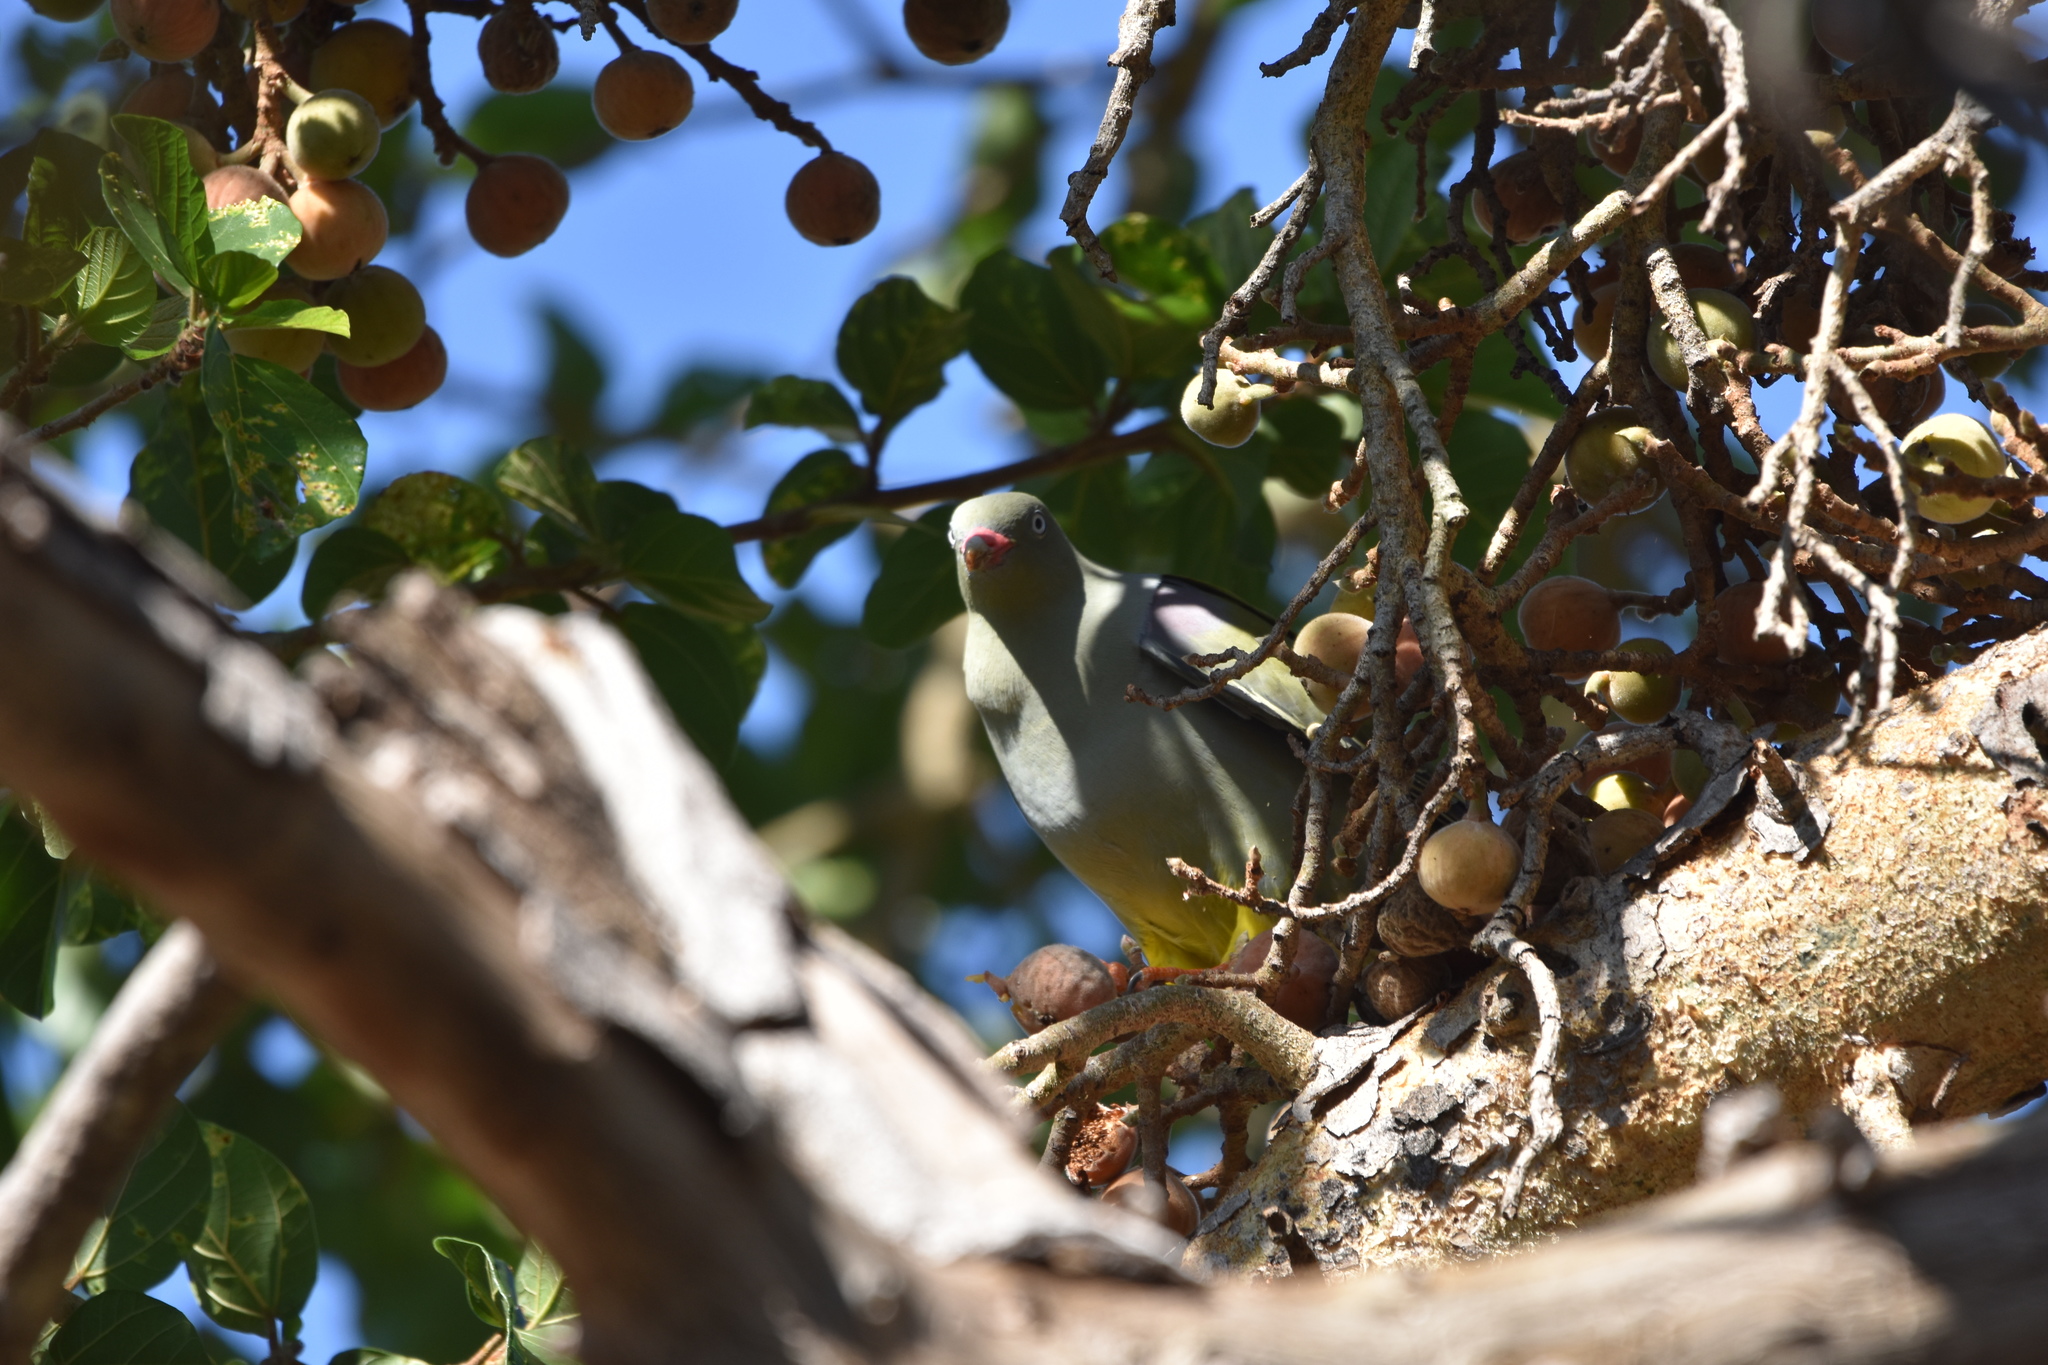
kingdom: Animalia
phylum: Chordata
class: Aves
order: Columbiformes
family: Columbidae
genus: Treron
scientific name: Treron calvus
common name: African green pigeon
